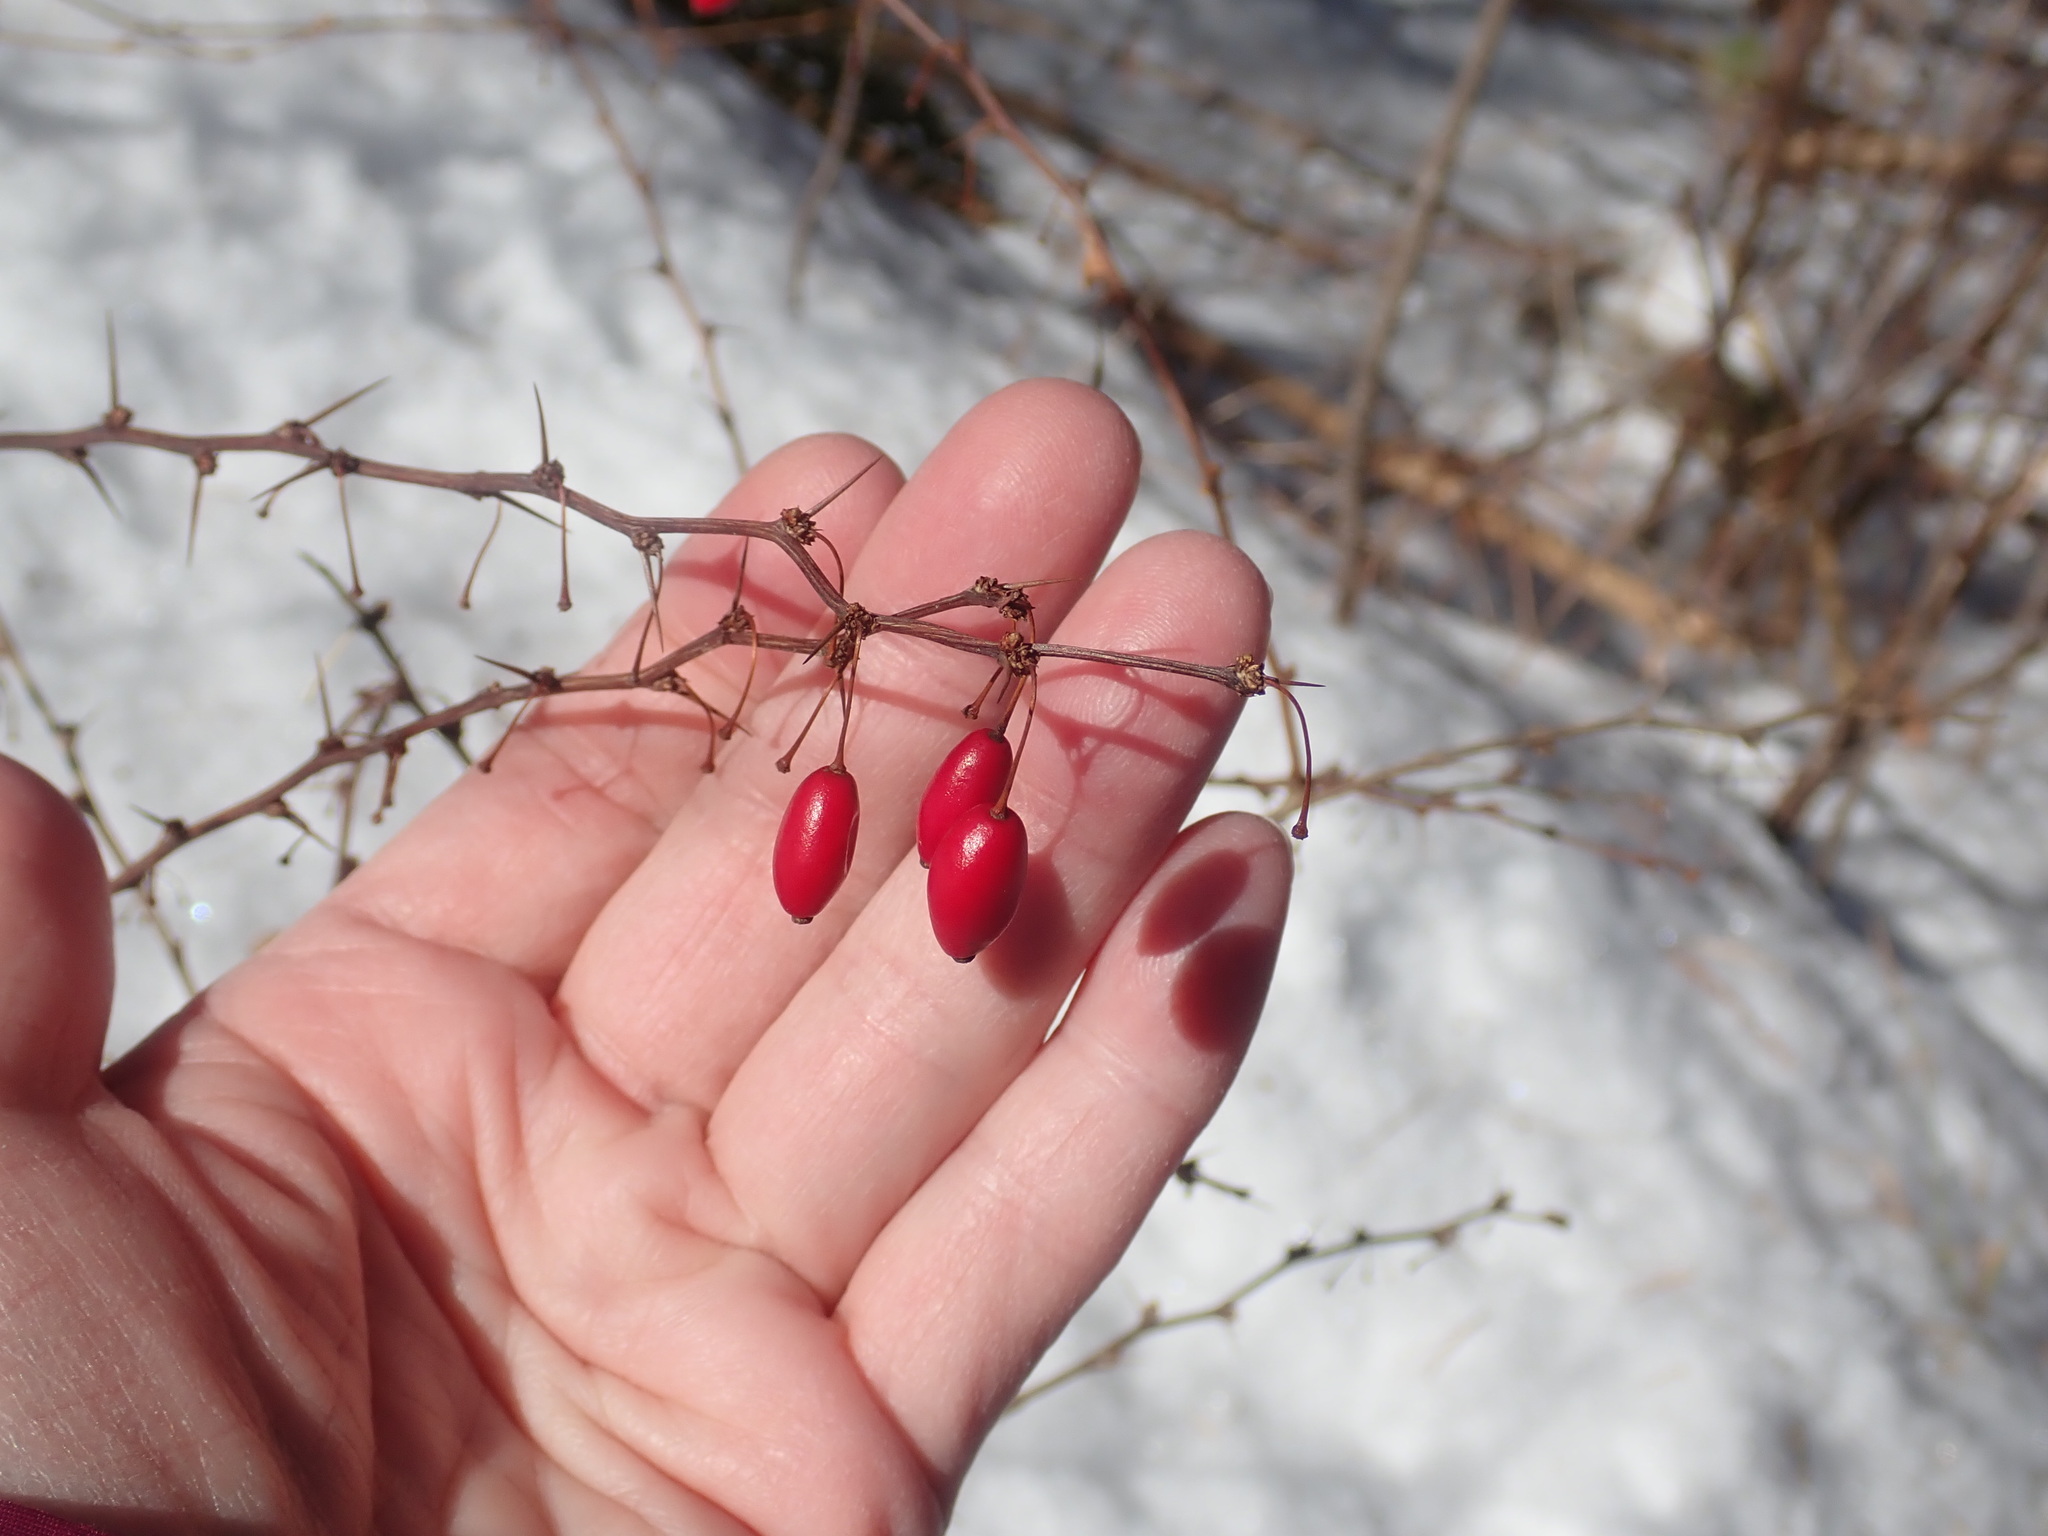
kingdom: Plantae
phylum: Tracheophyta
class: Magnoliopsida
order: Ranunculales
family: Berberidaceae
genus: Berberis
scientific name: Berberis thunbergii
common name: Japanese barberry
